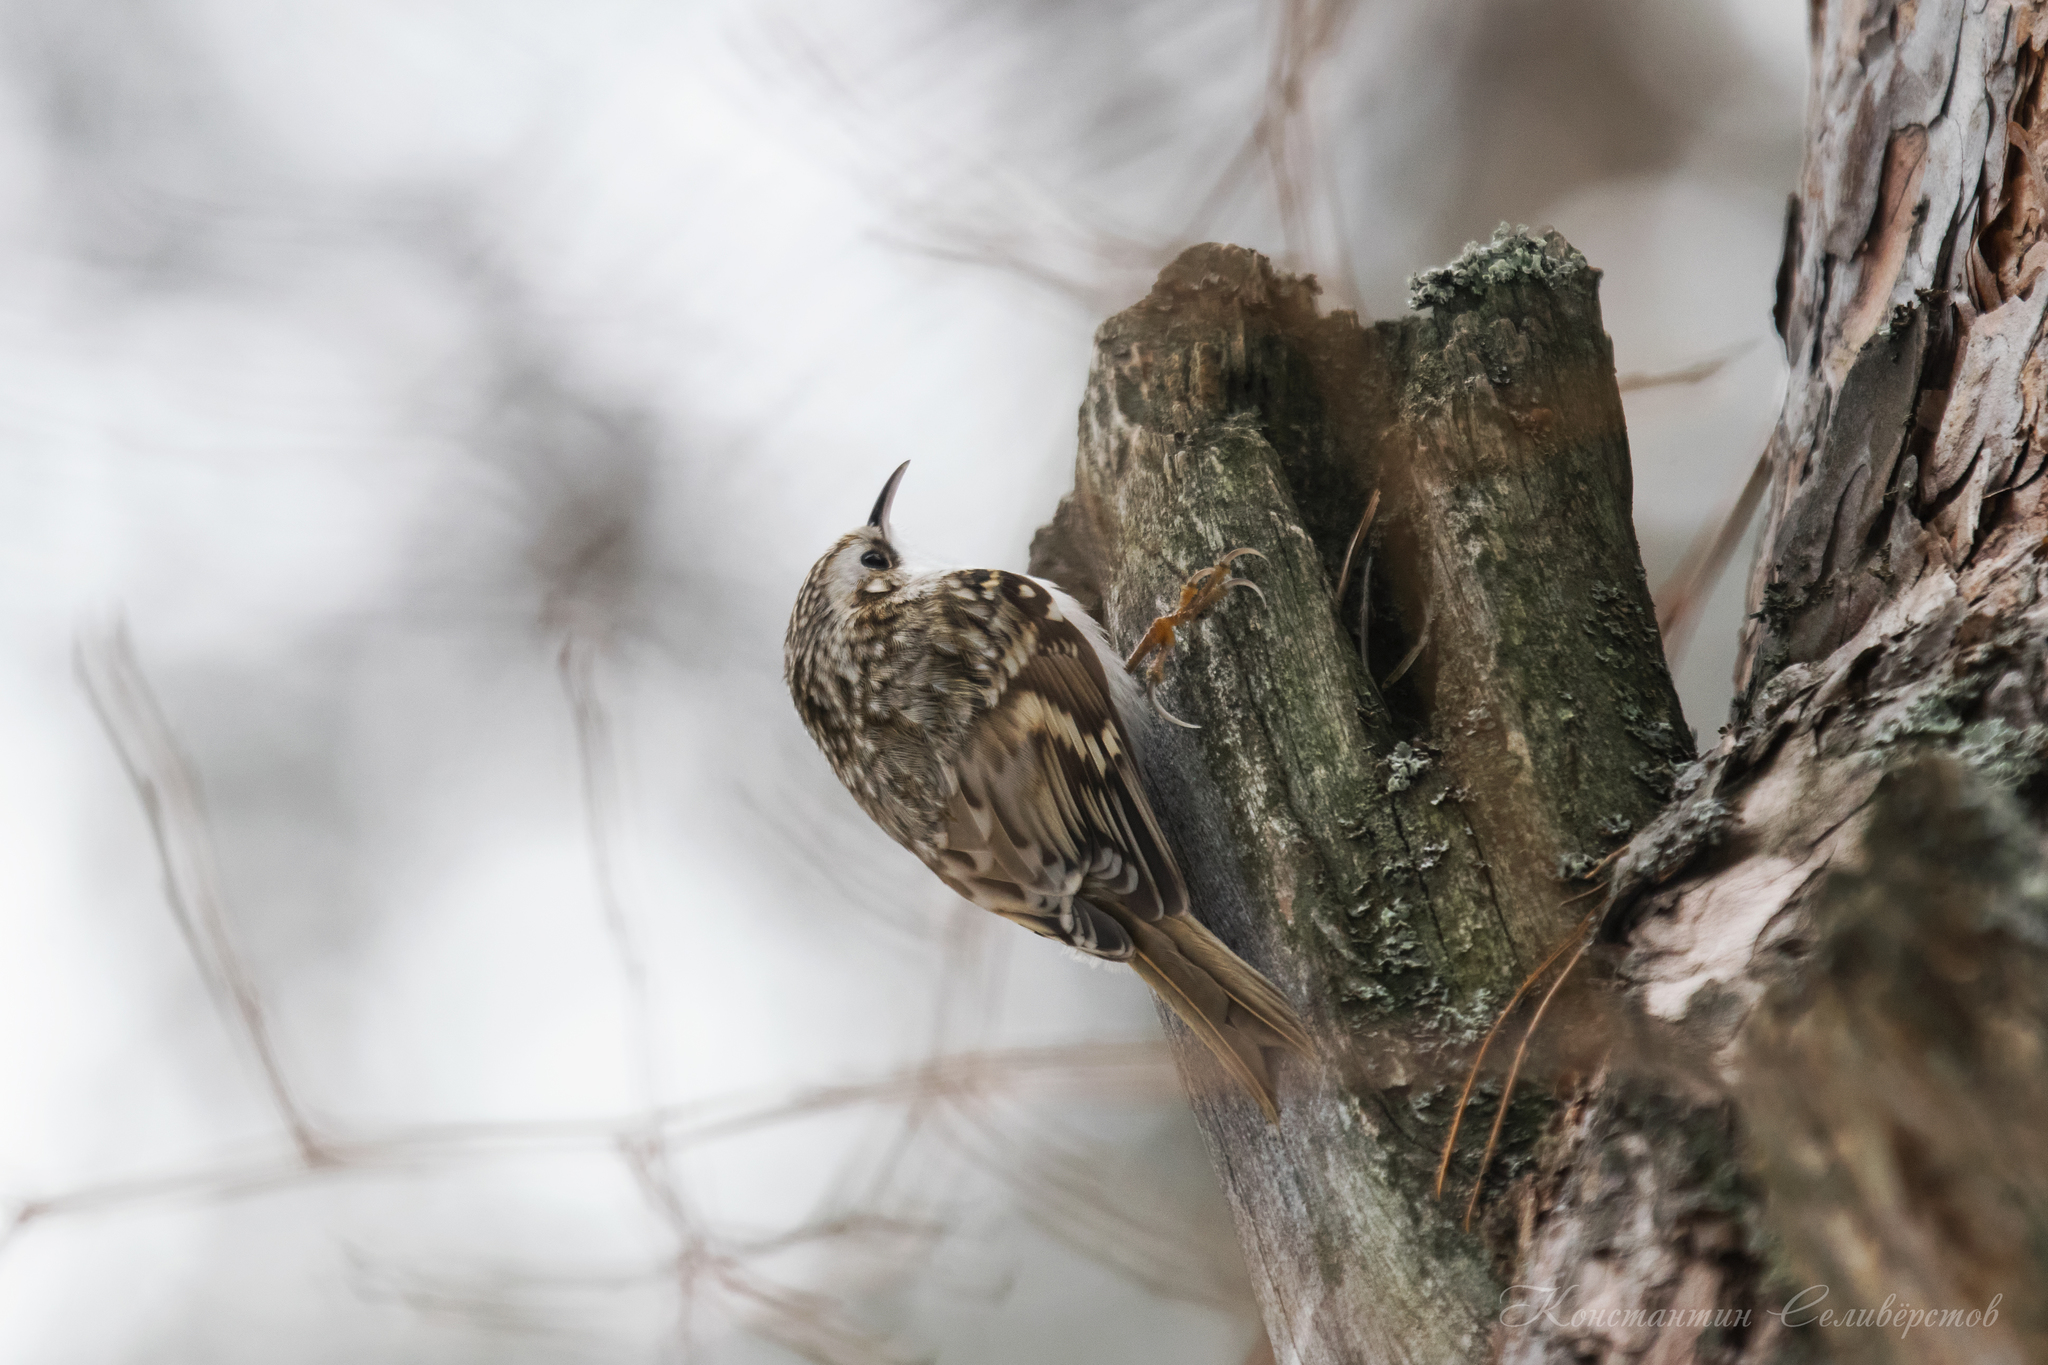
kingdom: Animalia
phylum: Chordata
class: Aves
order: Passeriformes
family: Certhiidae
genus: Certhia
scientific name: Certhia familiaris
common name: Eurasian treecreeper
